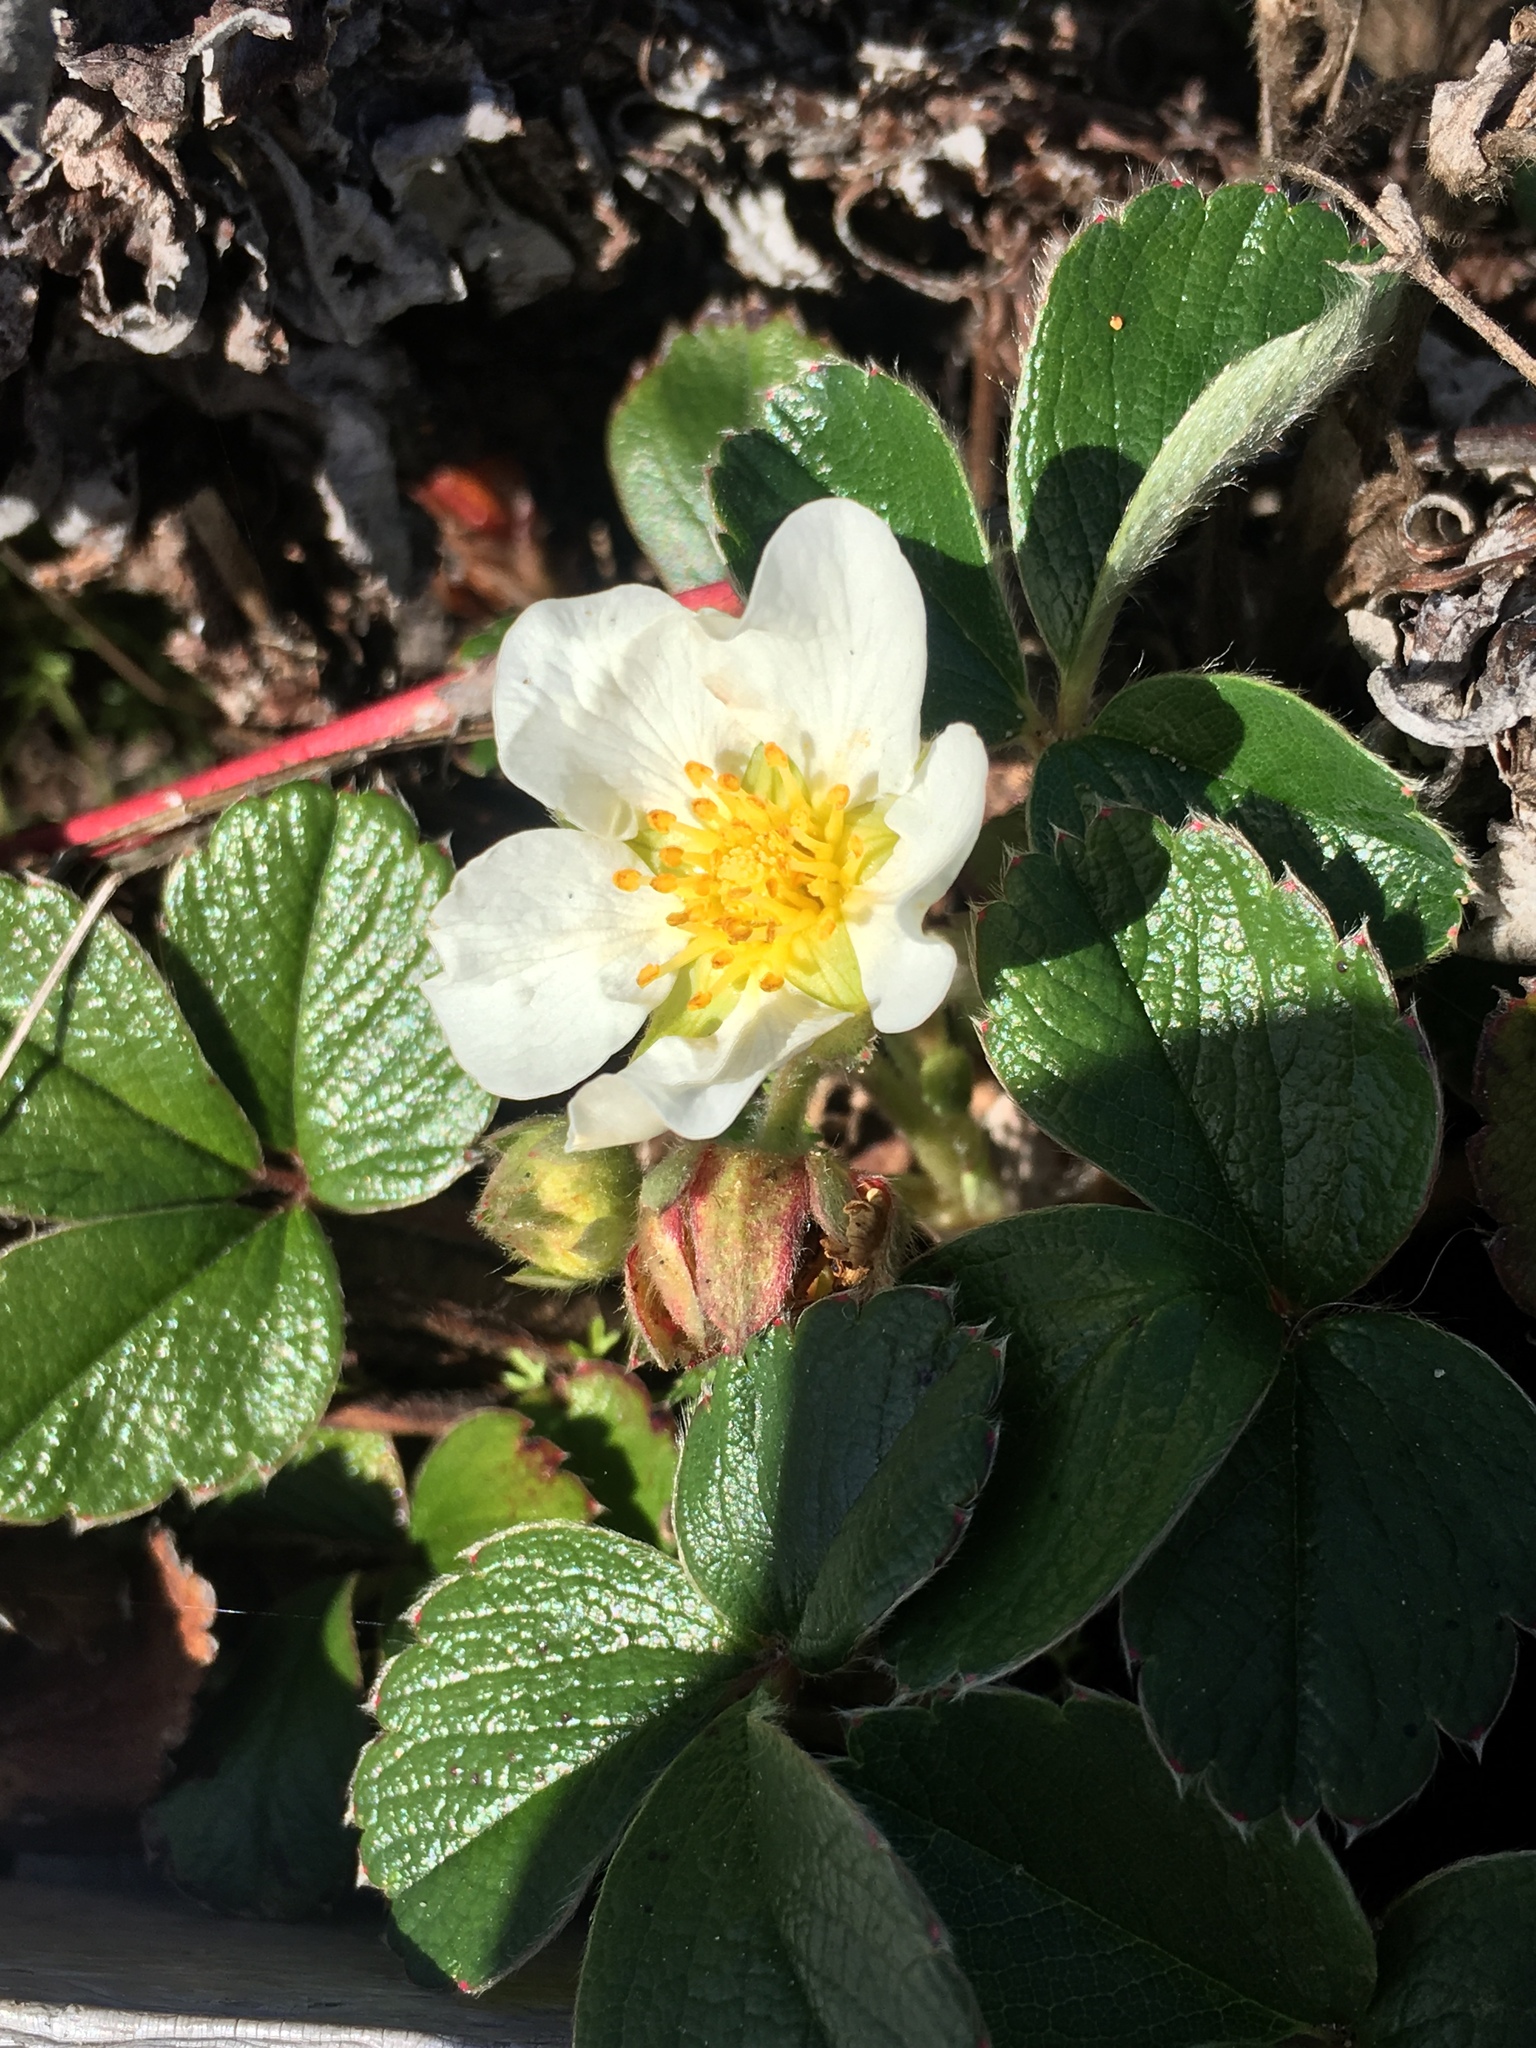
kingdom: Plantae
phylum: Tracheophyta
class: Magnoliopsida
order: Rosales
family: Rosaceae
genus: Fragaria
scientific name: Fragaria chiloensis
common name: Beach strawberry
